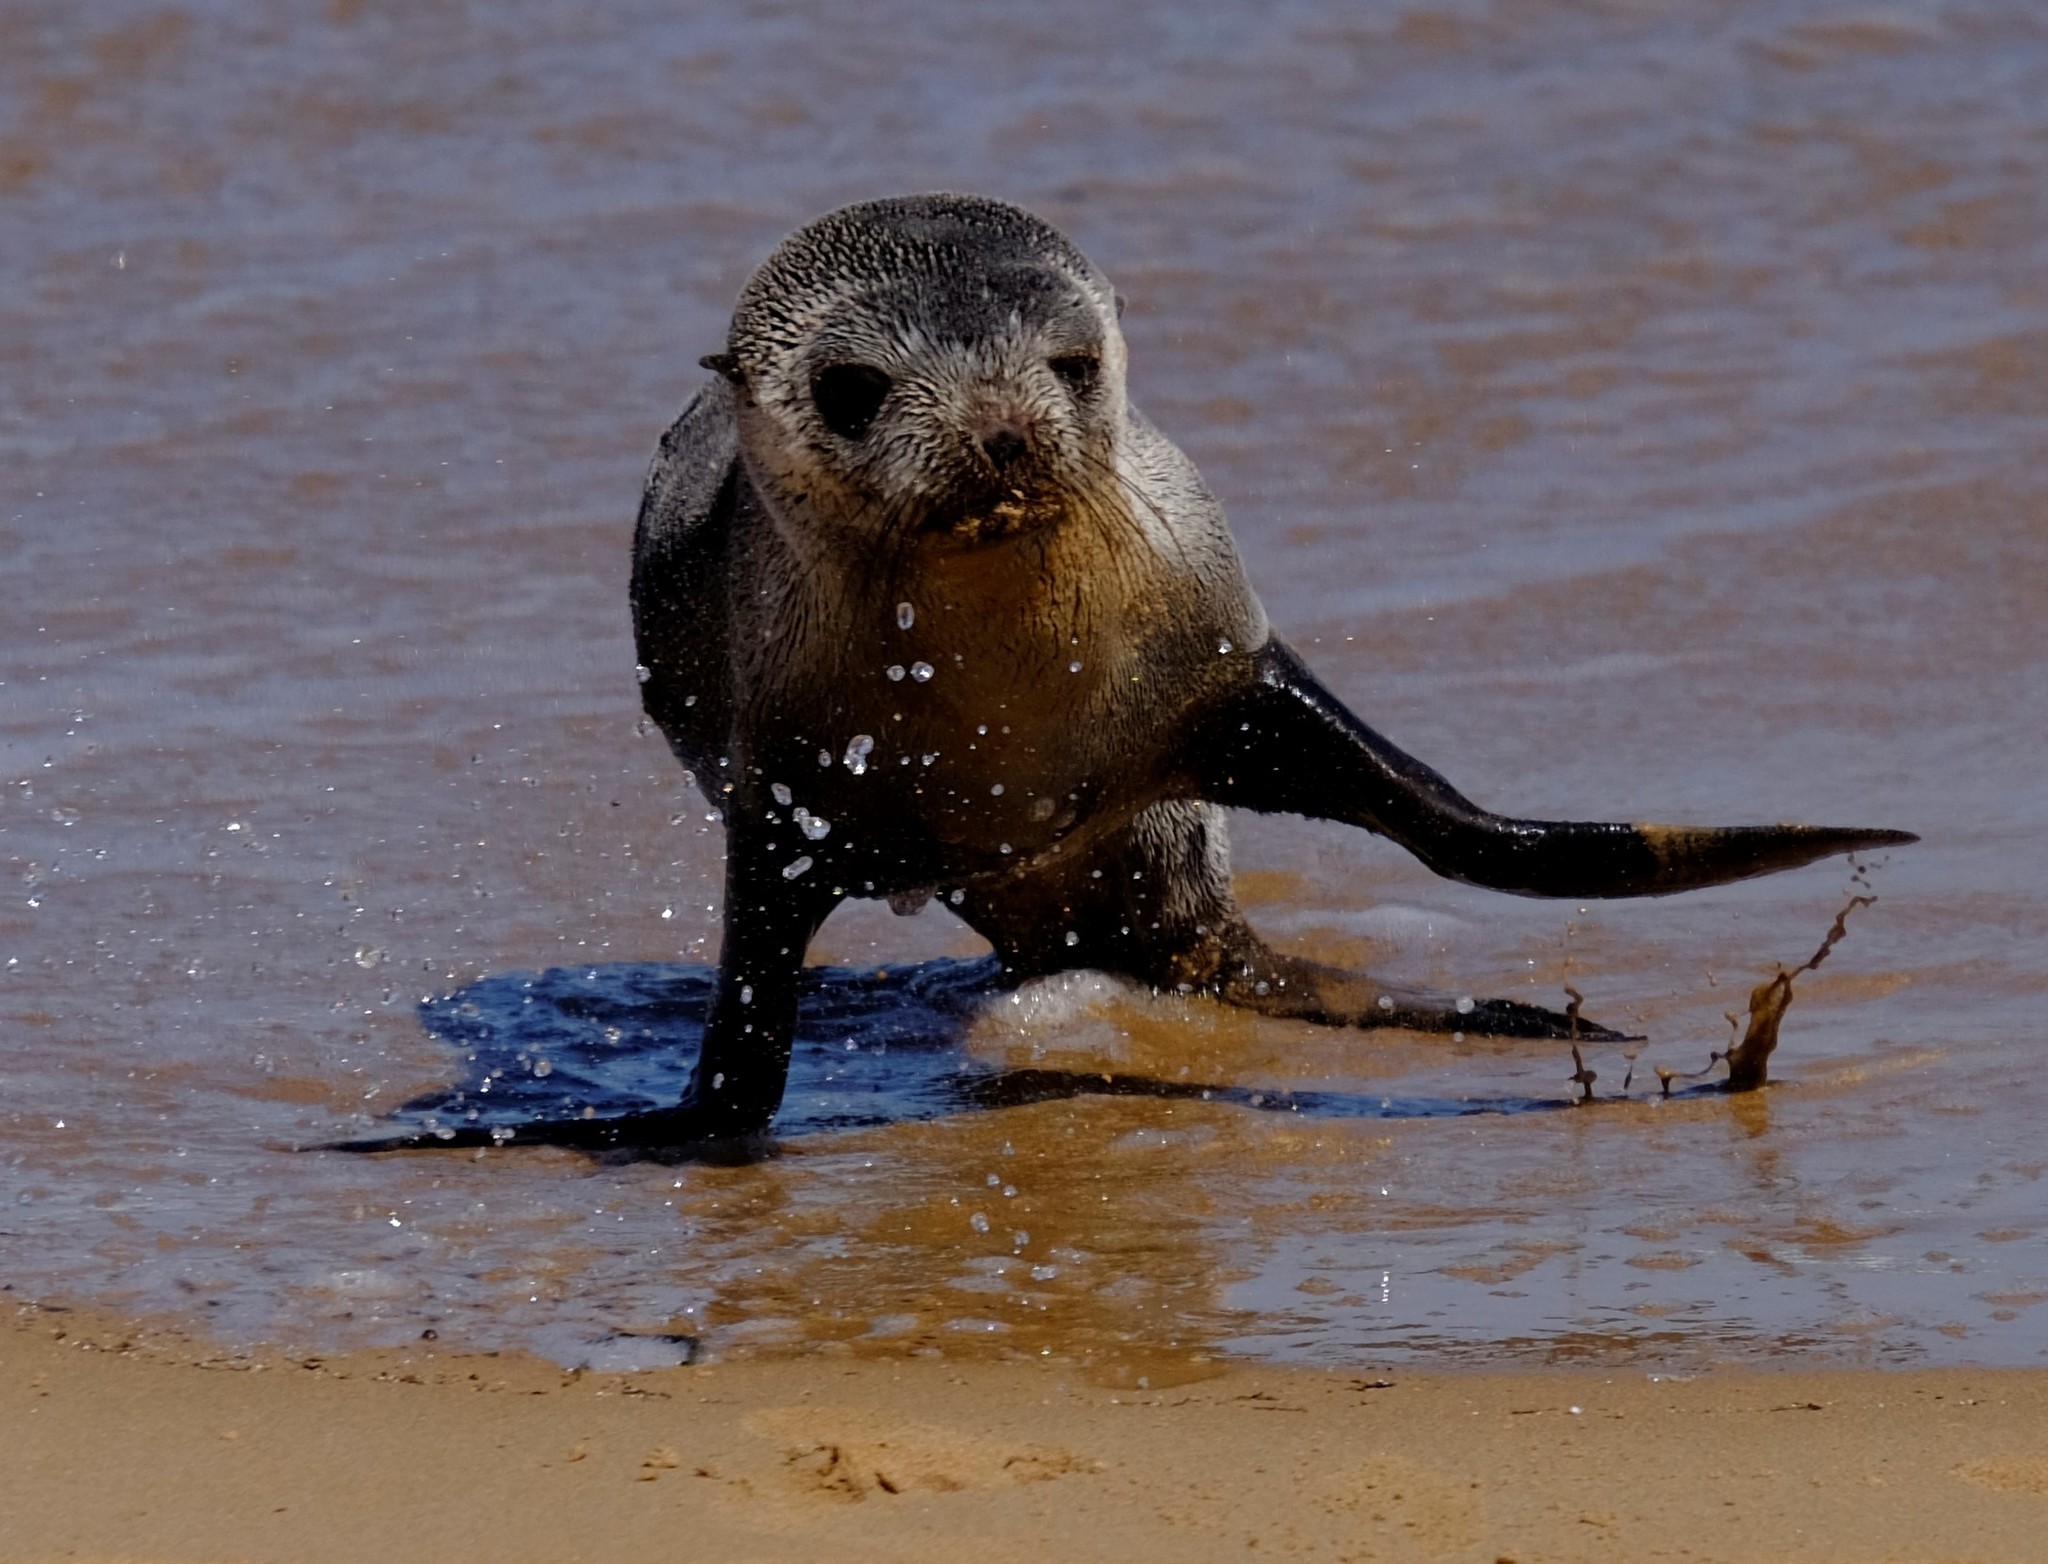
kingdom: Animalia
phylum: Chordata
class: Mammalia
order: Carnivora
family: Otariidae
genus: Arctocephalus
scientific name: Arctocephalus pusillus
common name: Brown fur seal
